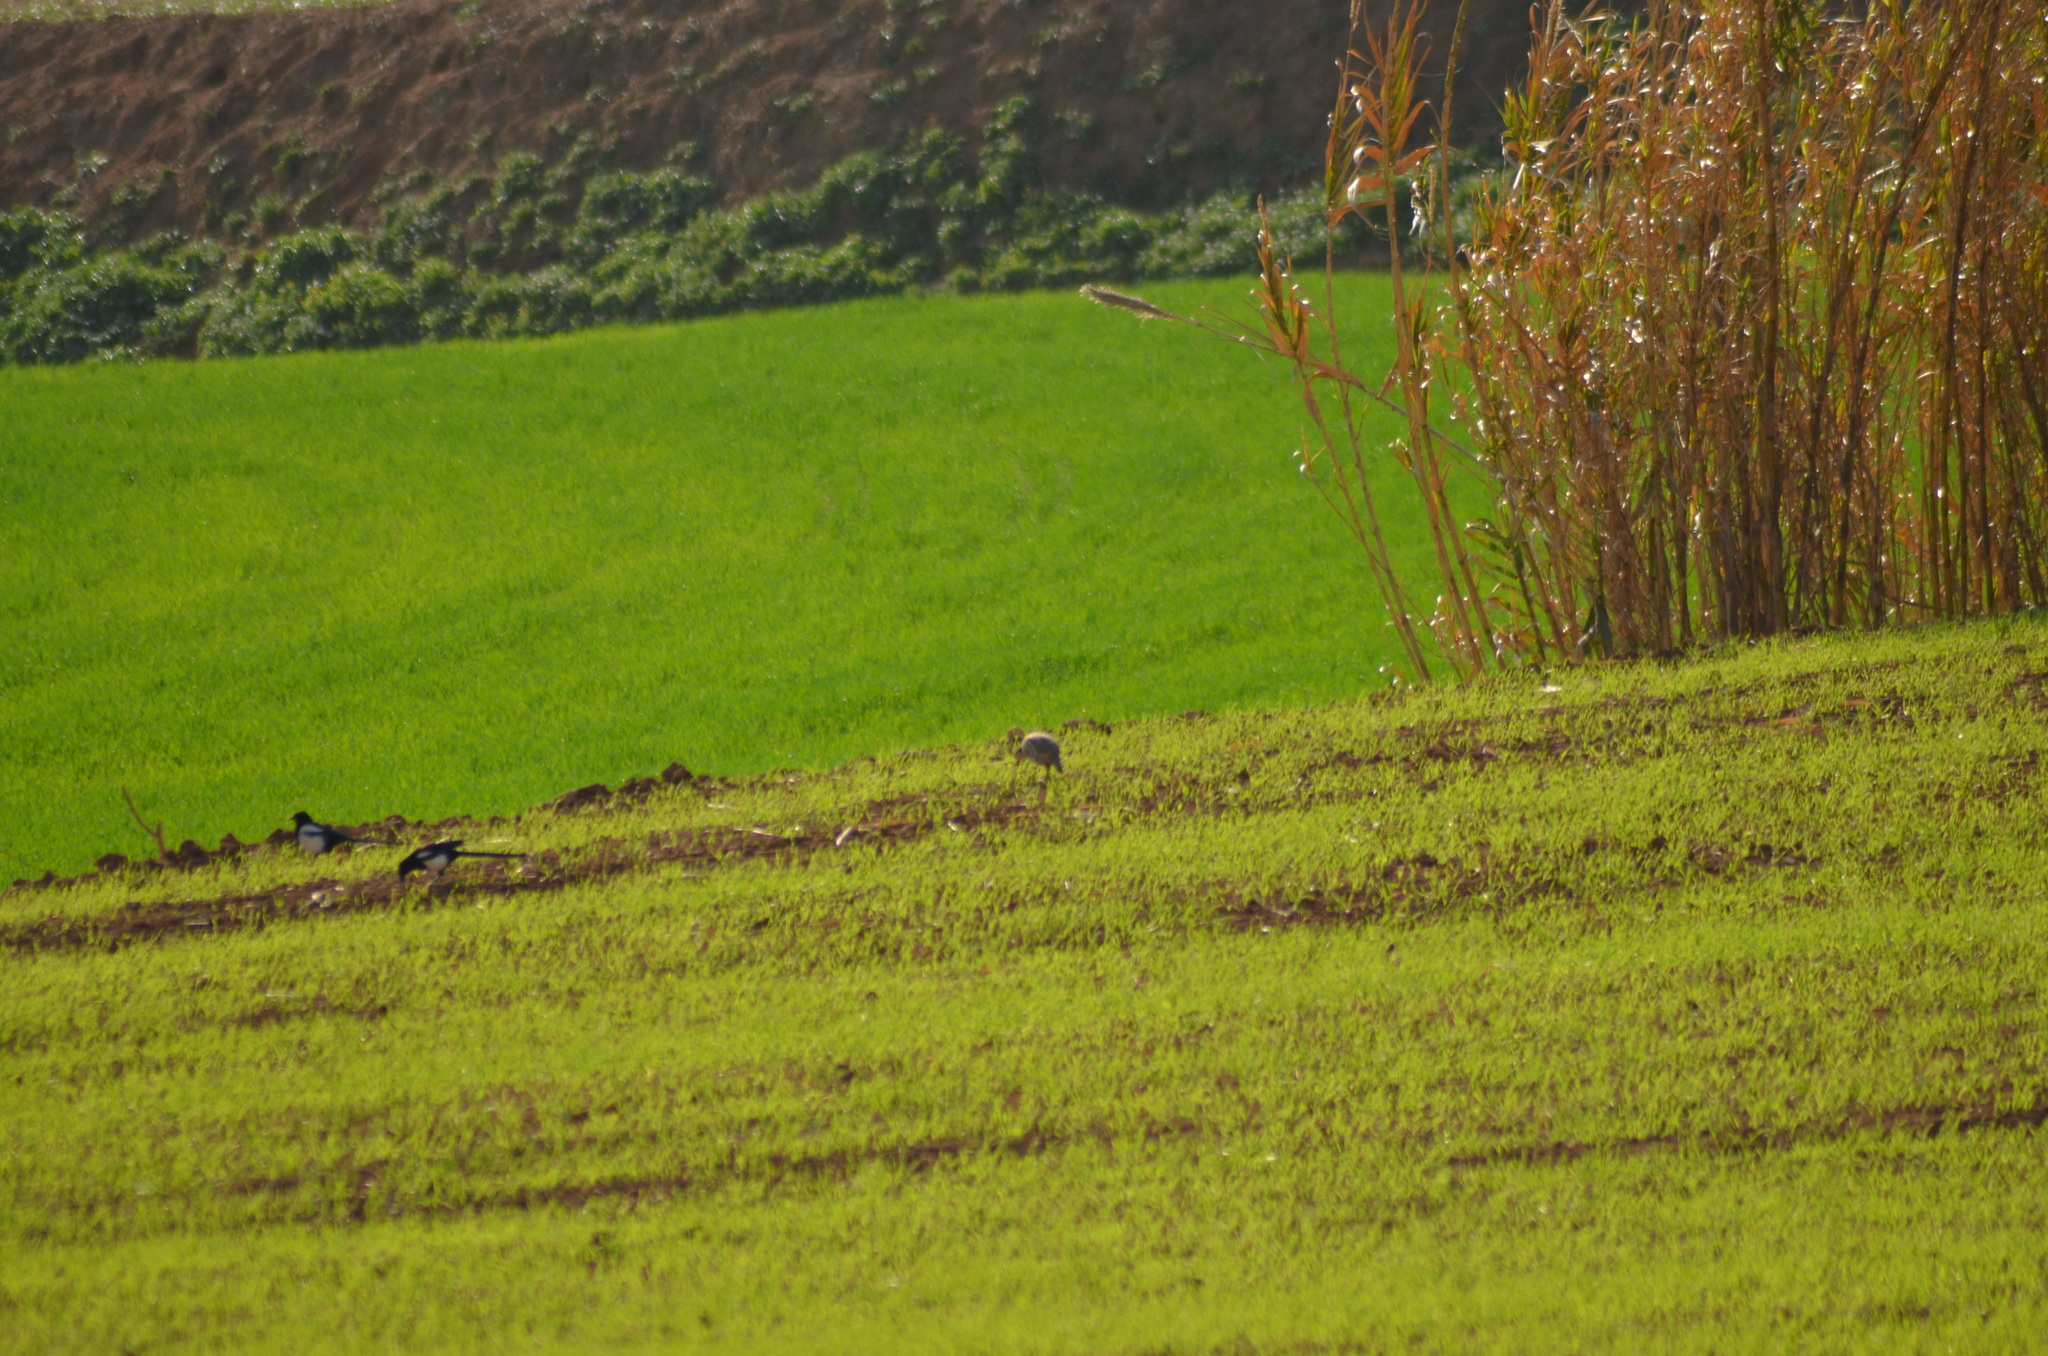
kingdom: Animalia
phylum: Chordata
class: Aves
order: Galliformes
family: Phasianidae
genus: Alectoris
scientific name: Alectoris rufa
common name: Red-legged partridge
